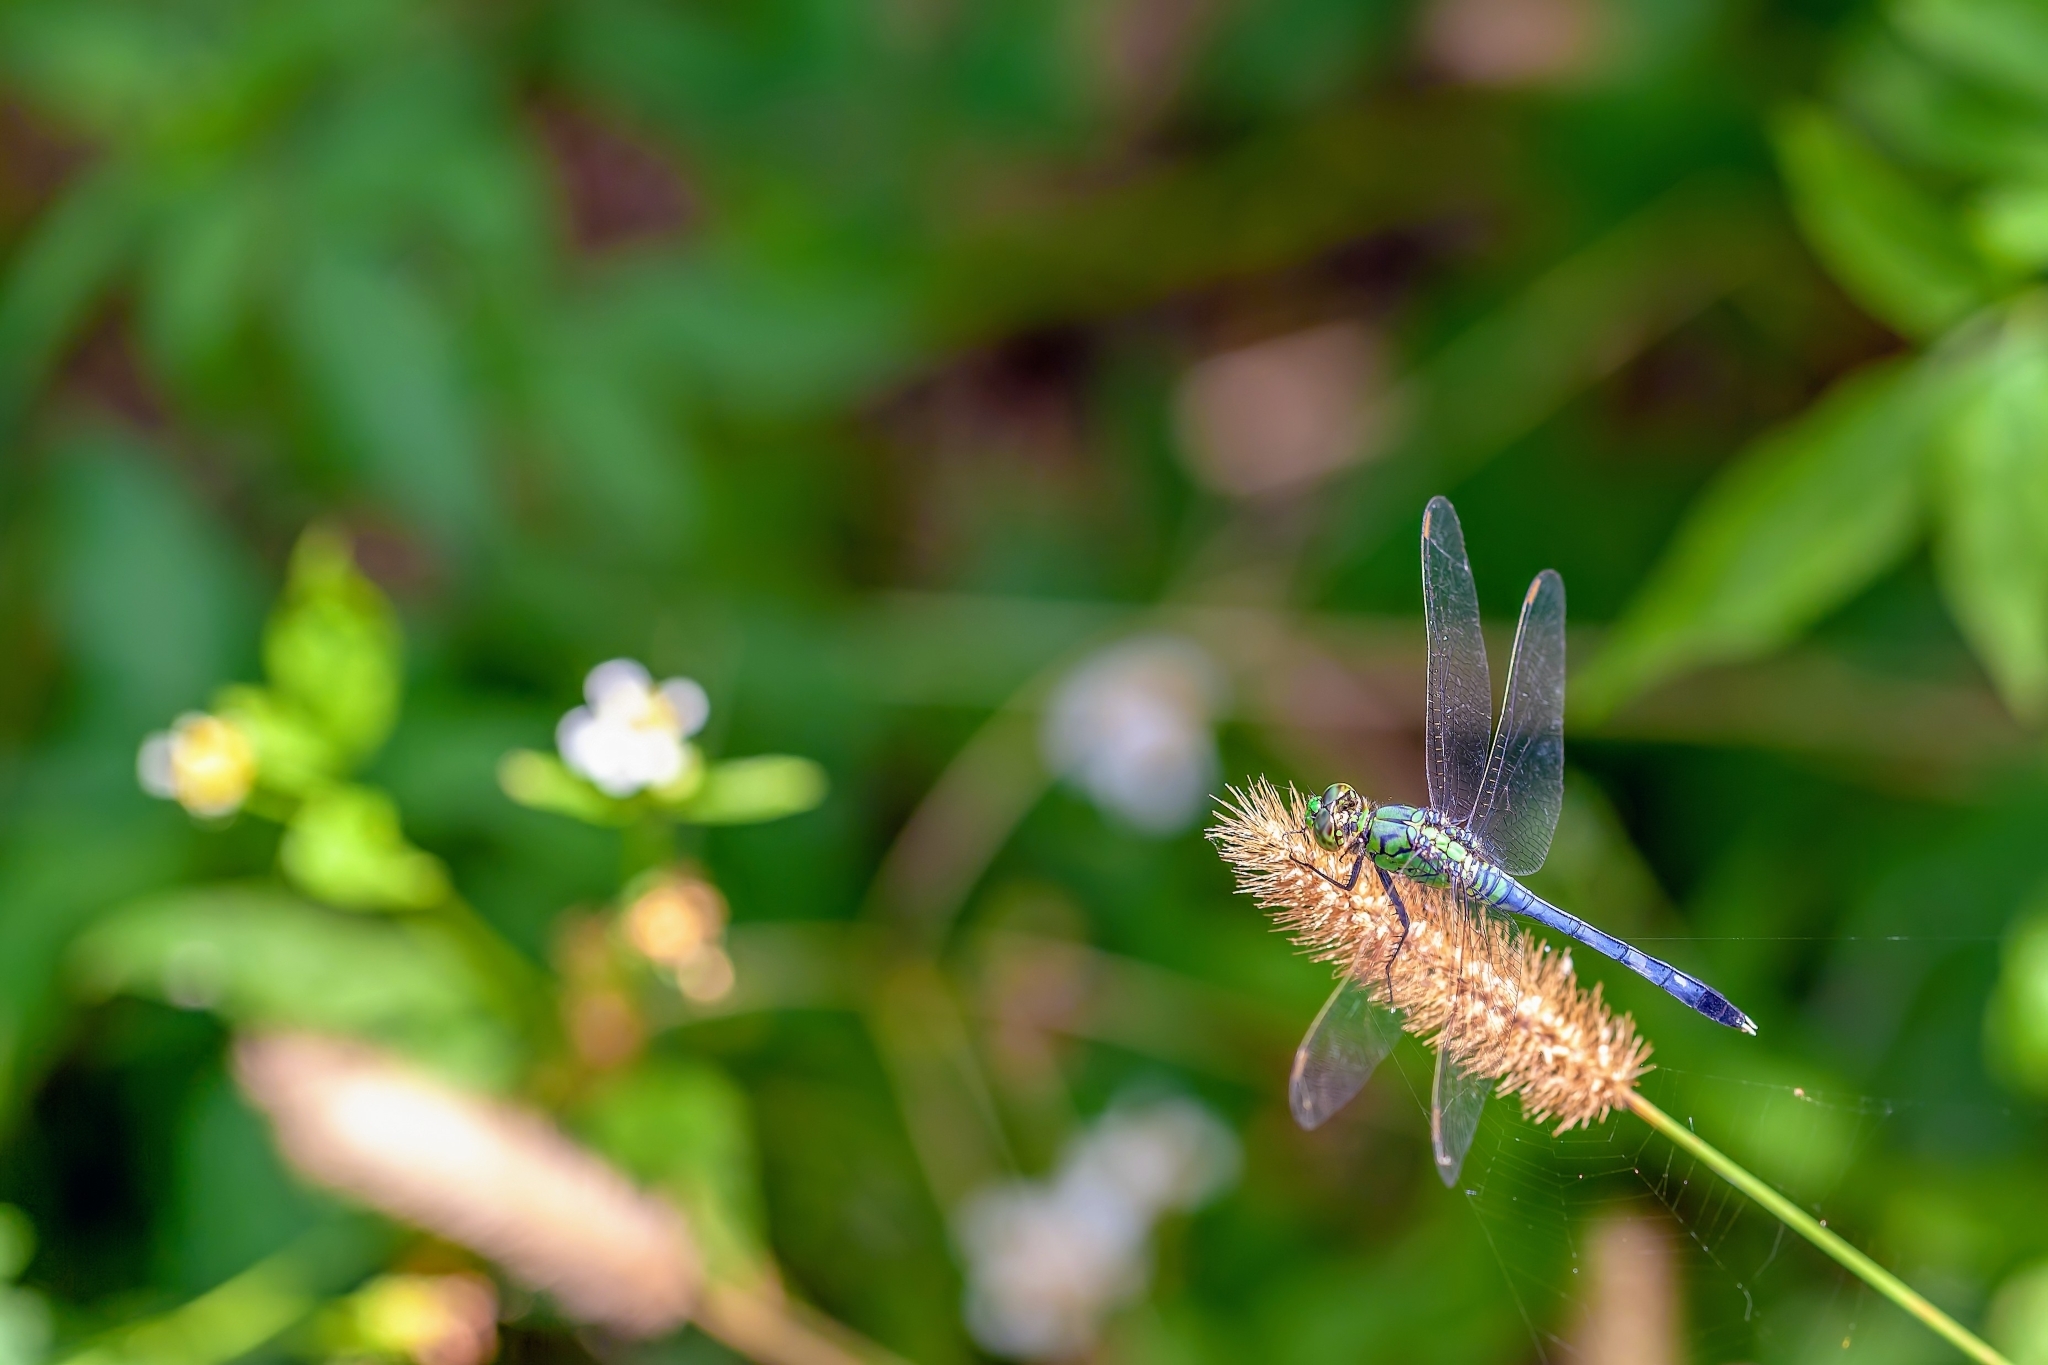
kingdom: Animalia
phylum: Arthropoda
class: Insecta
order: Odonata
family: Libellulidae
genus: Erythemis
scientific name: Erythemis simplicicollis
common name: Eastern pondhawk
